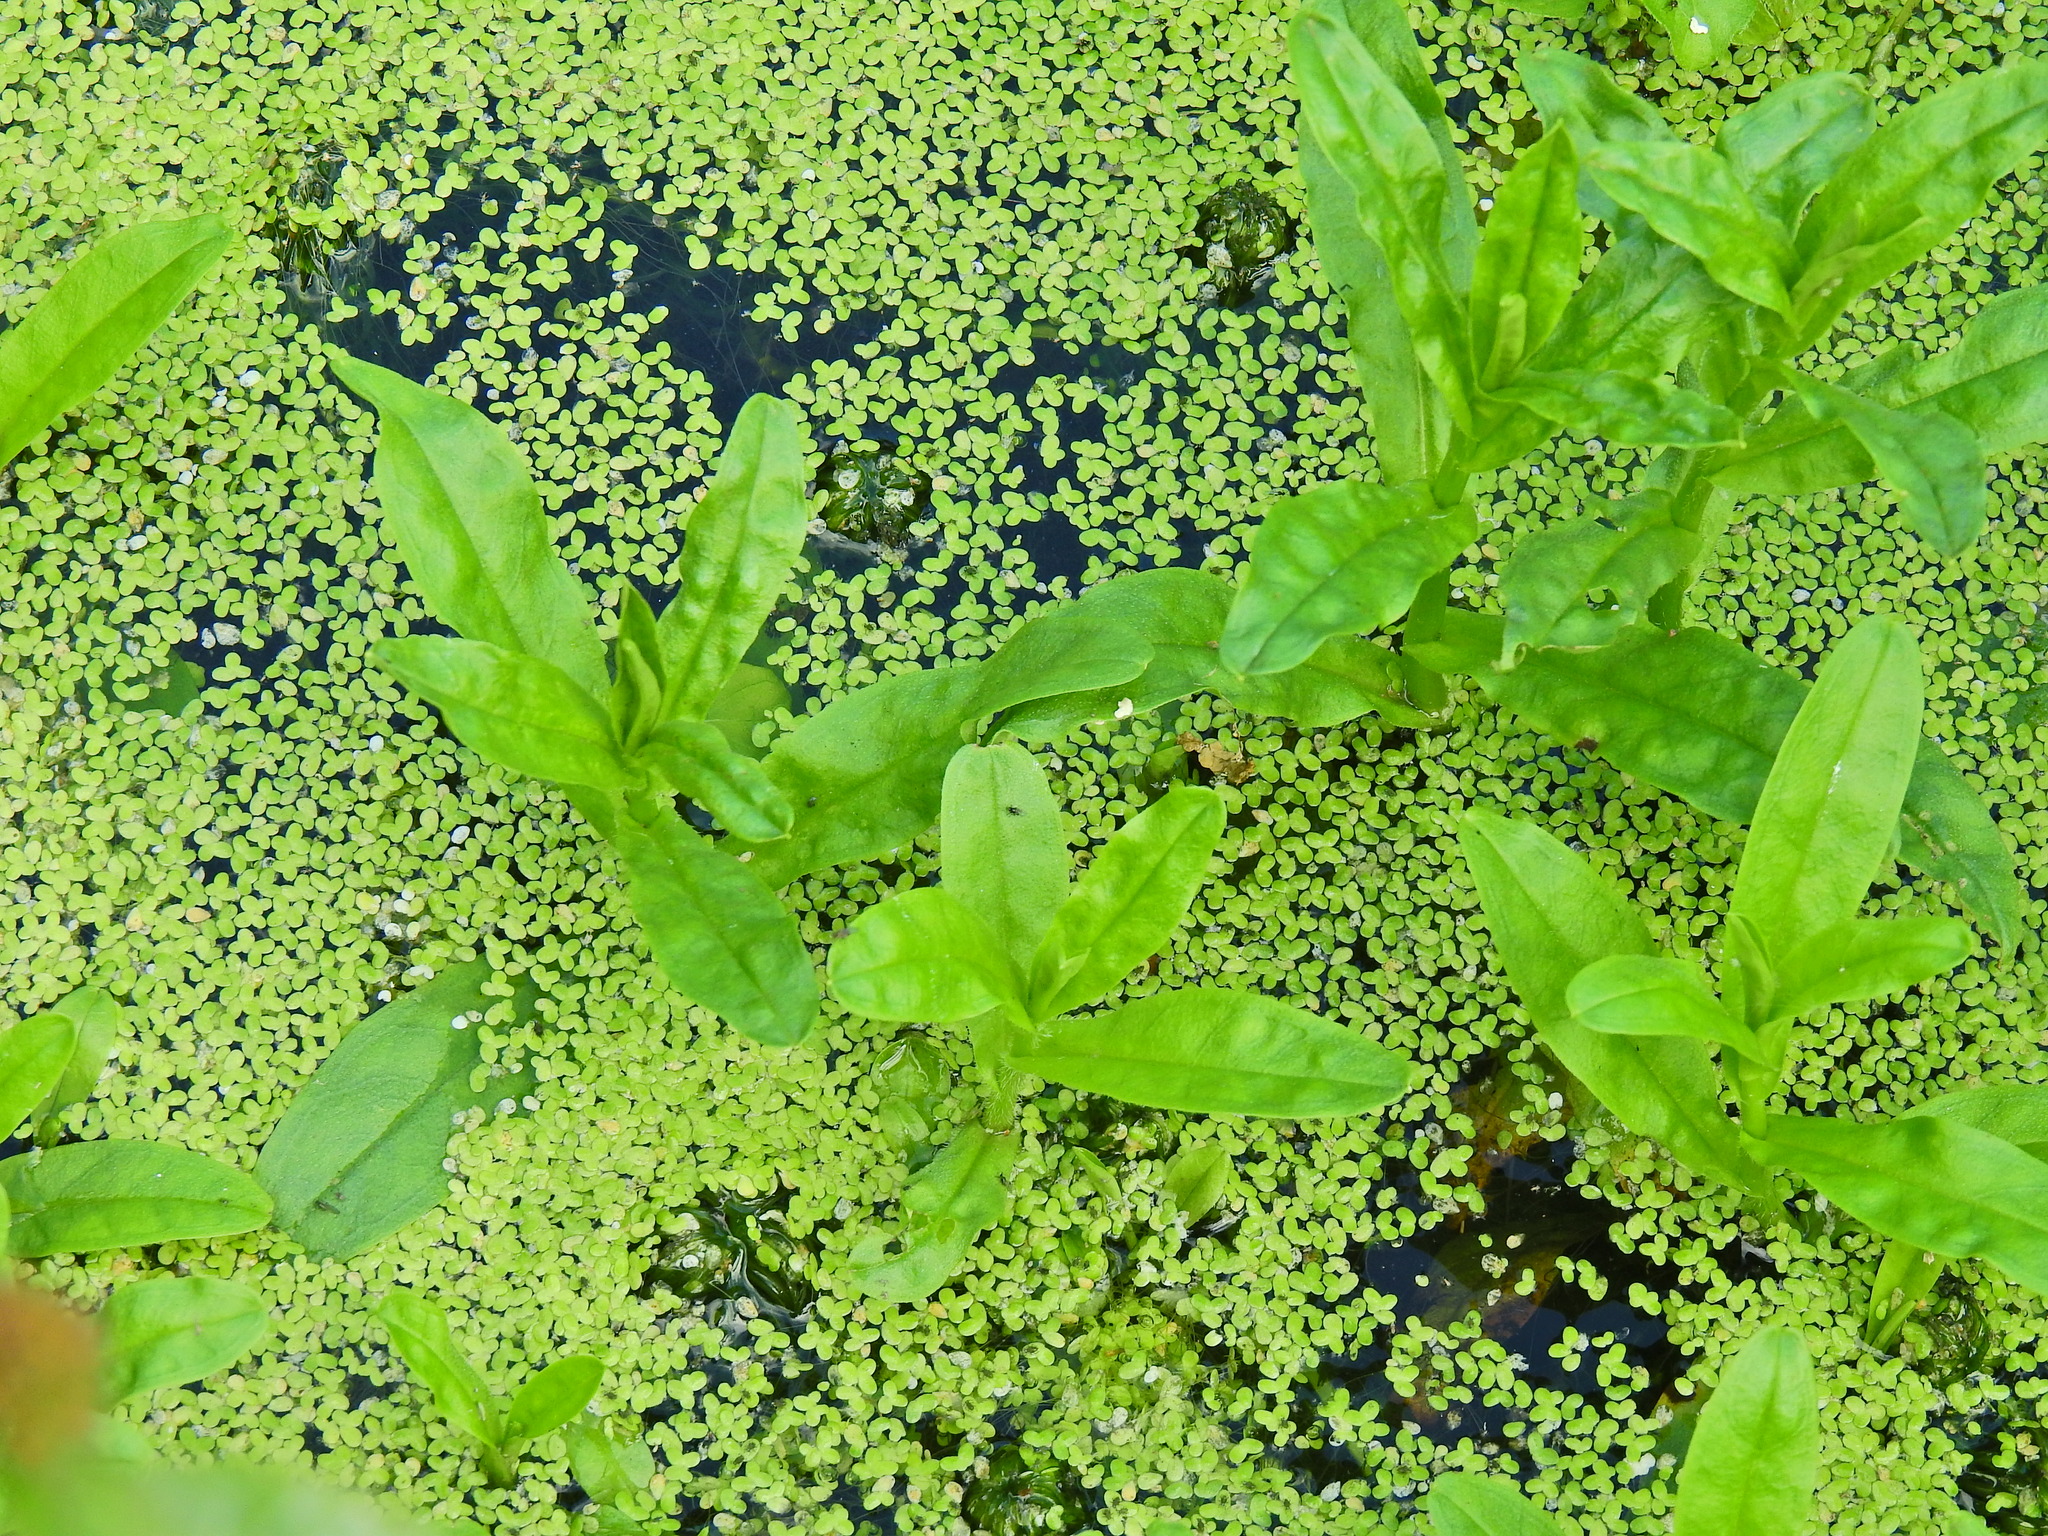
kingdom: Plantae
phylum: Tracheophyta
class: Magnoliopsida
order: Boraginales
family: Boraginaceae
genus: Myosotis
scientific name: Myosotis scorpioides
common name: Water forget-me-not
